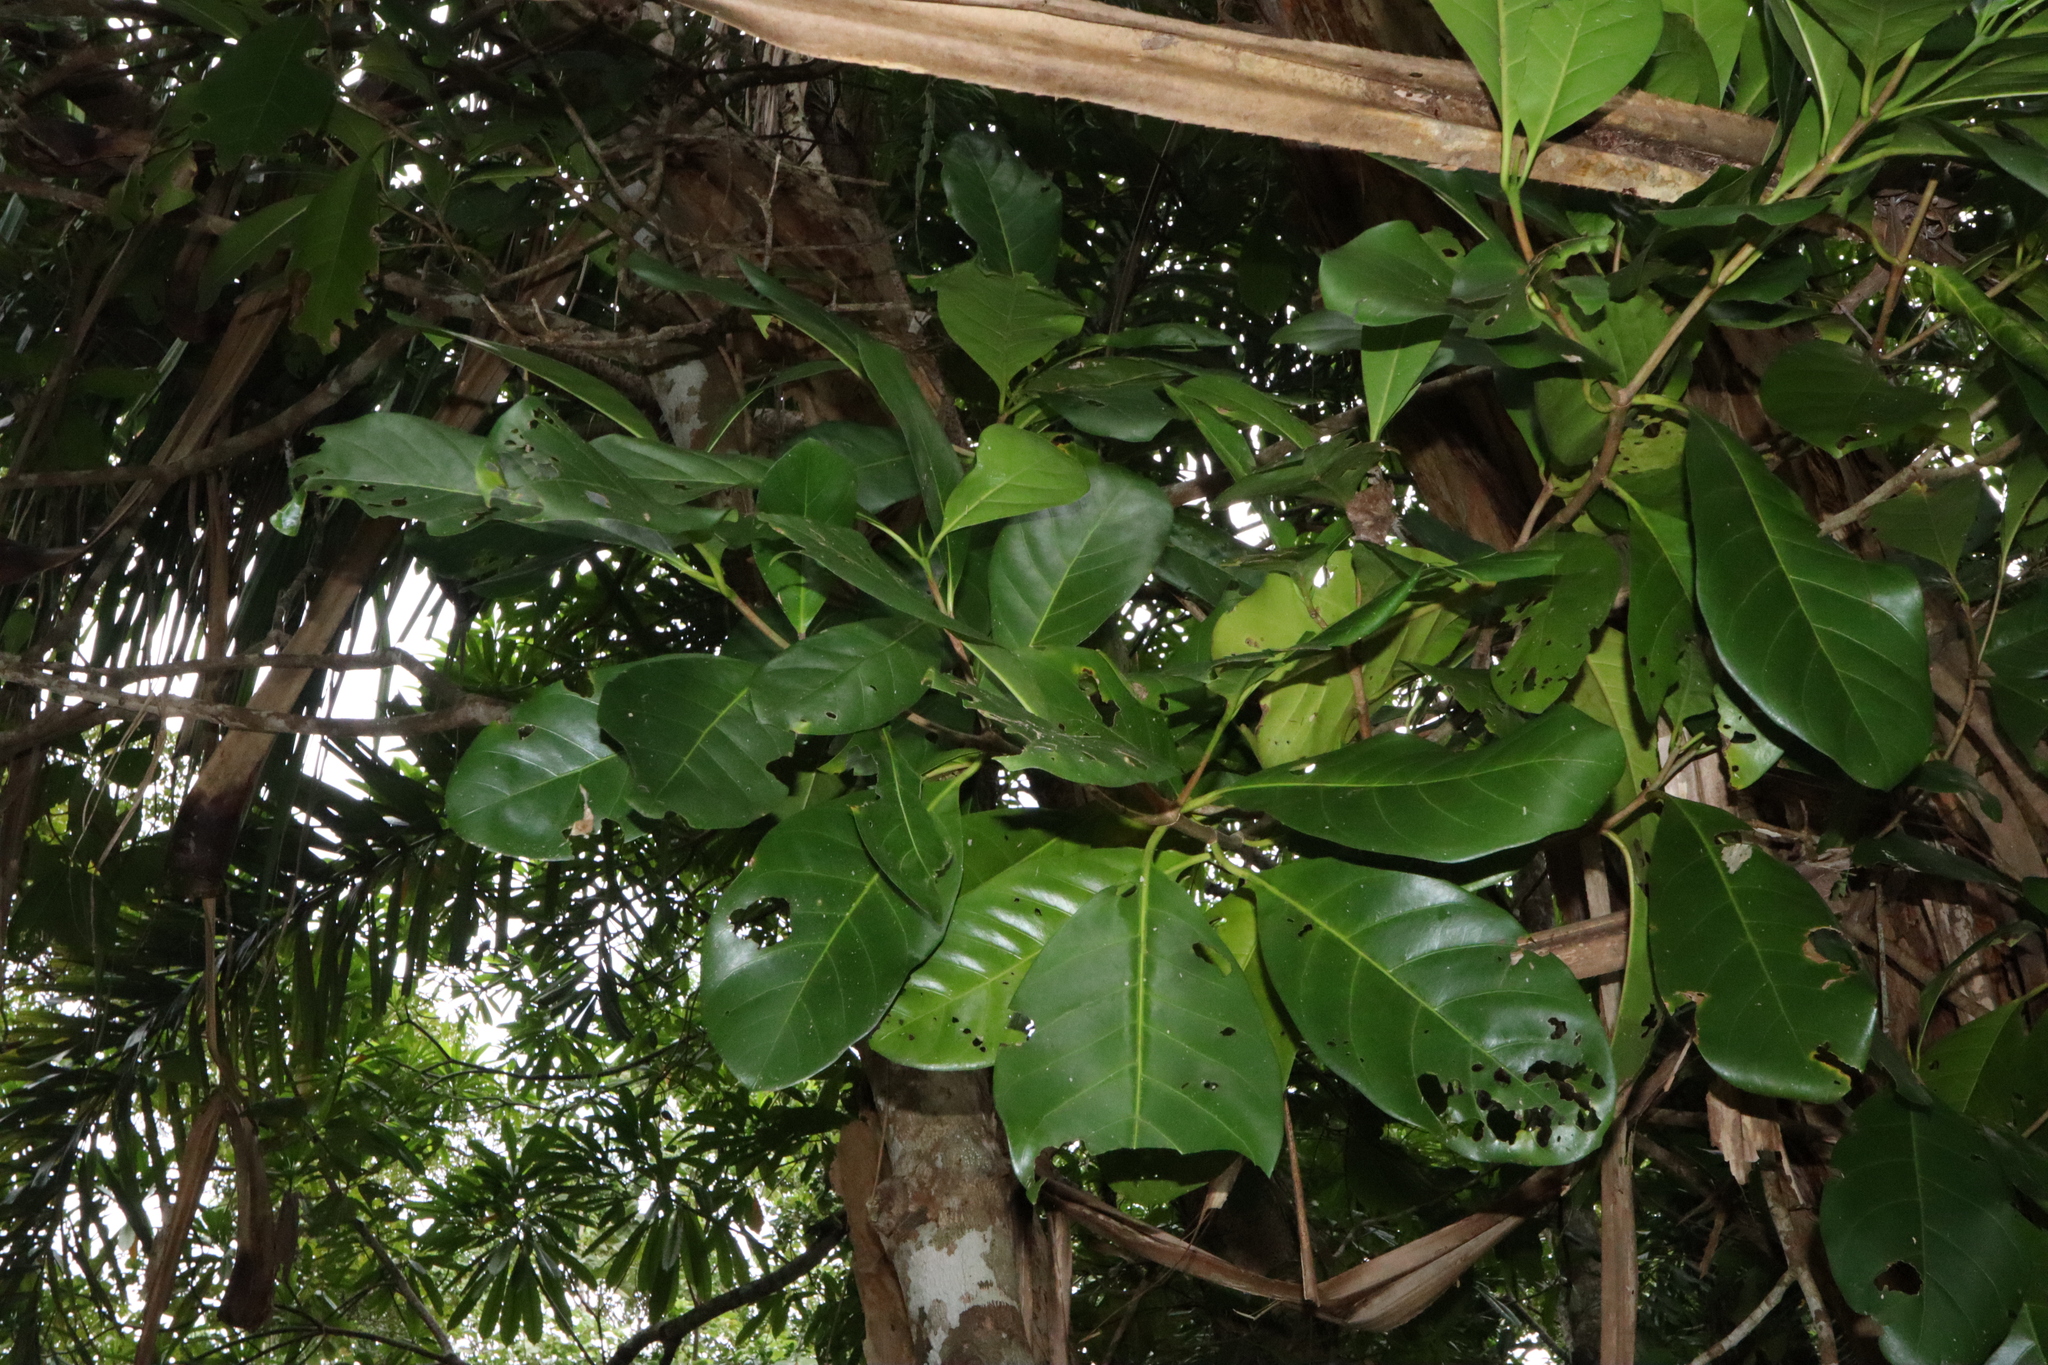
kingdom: Plantae
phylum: Tracheophyta
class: Magnoliopsida
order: Gentianales
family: Rubiaceae
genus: Atractocarpus
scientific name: Atractocarpus fitzalanii
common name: Randia
